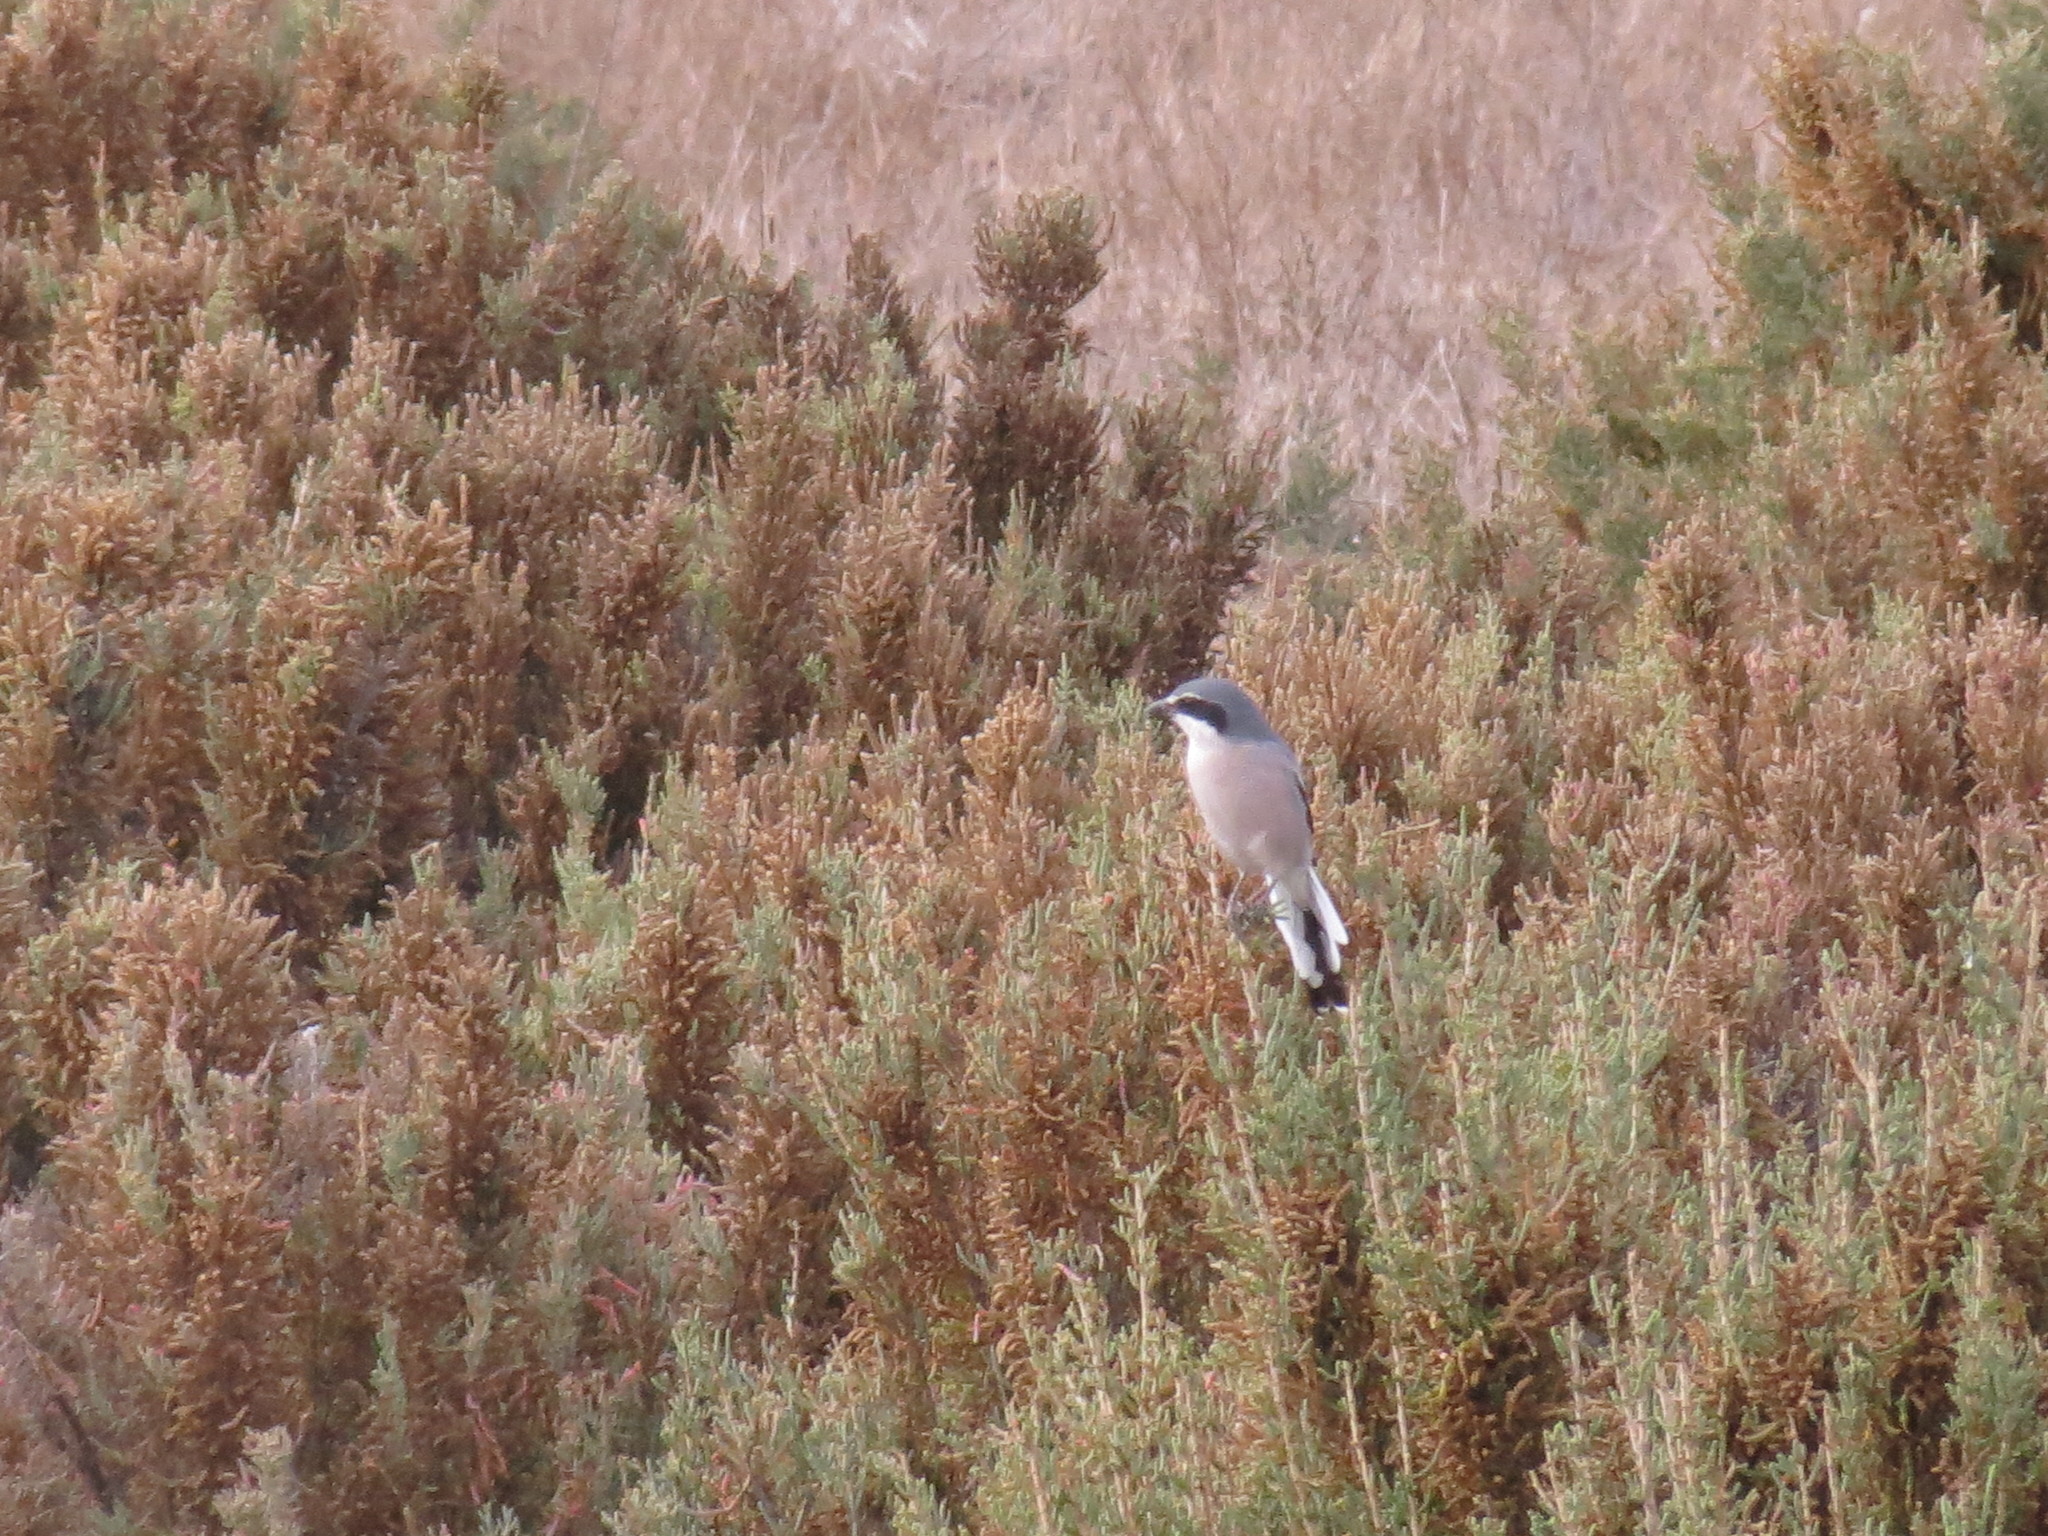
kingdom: Animalia
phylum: Chordata
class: Aves
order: Passeriformes
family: Laniidae
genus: Lanius
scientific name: Lanius meridionalis
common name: Iberian grey shrike
